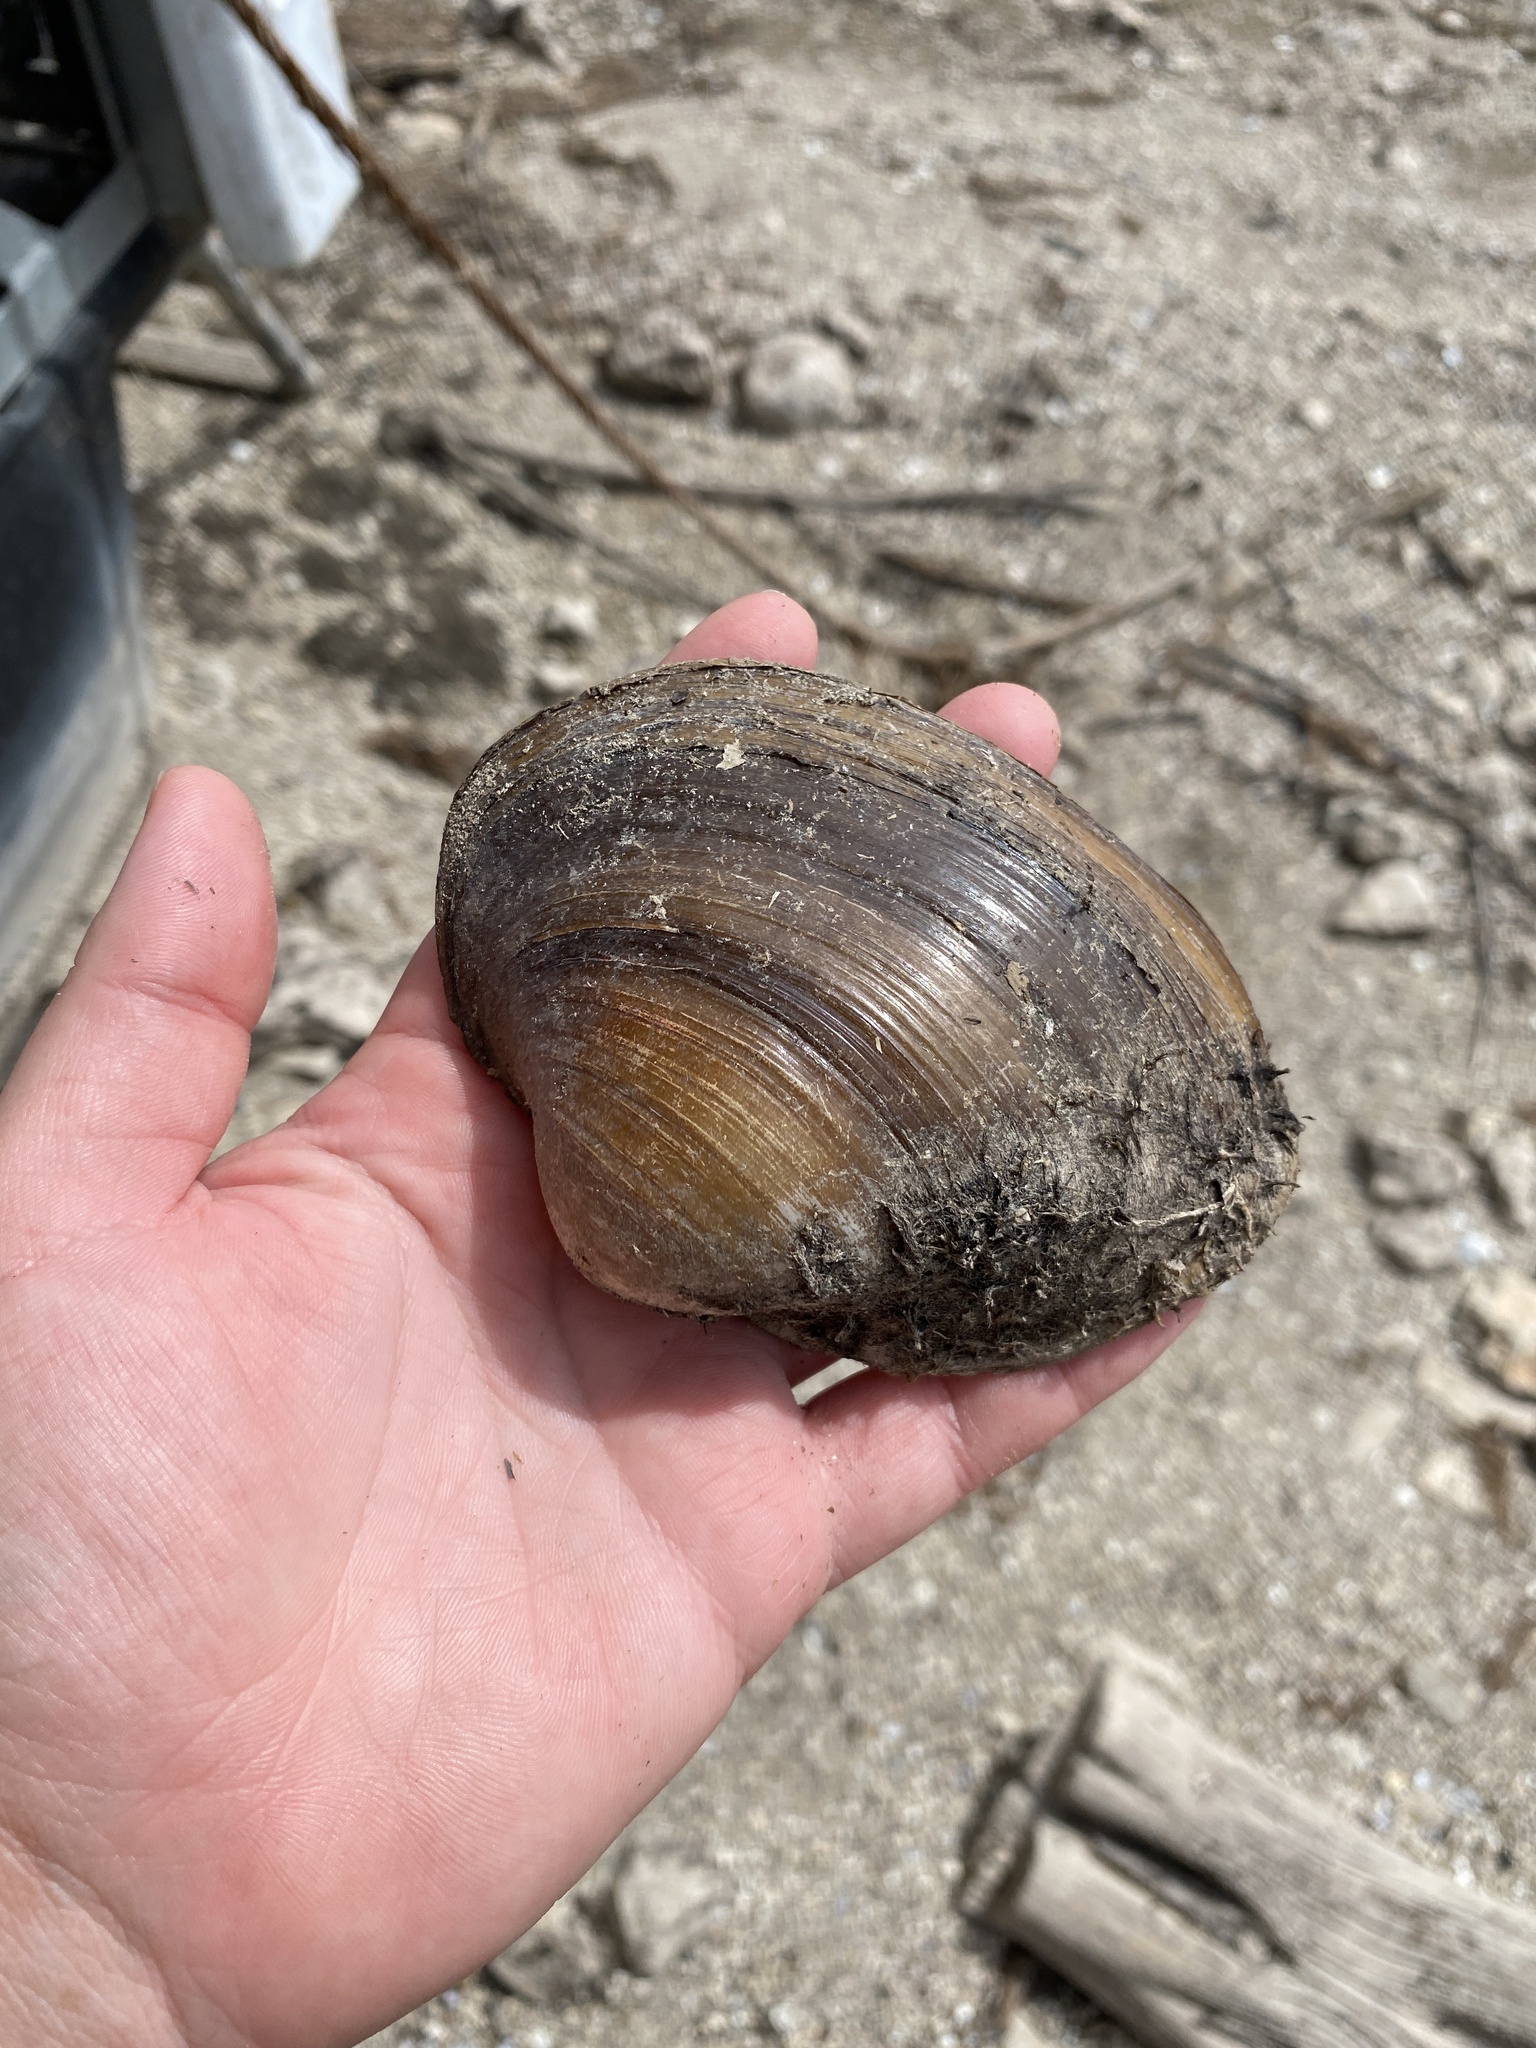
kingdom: Animalia
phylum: Mollusca
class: Bivalvia
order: Unionida
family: Unionidae
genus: Pyganodon
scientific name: Pyganodon grandis
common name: Giant floater
